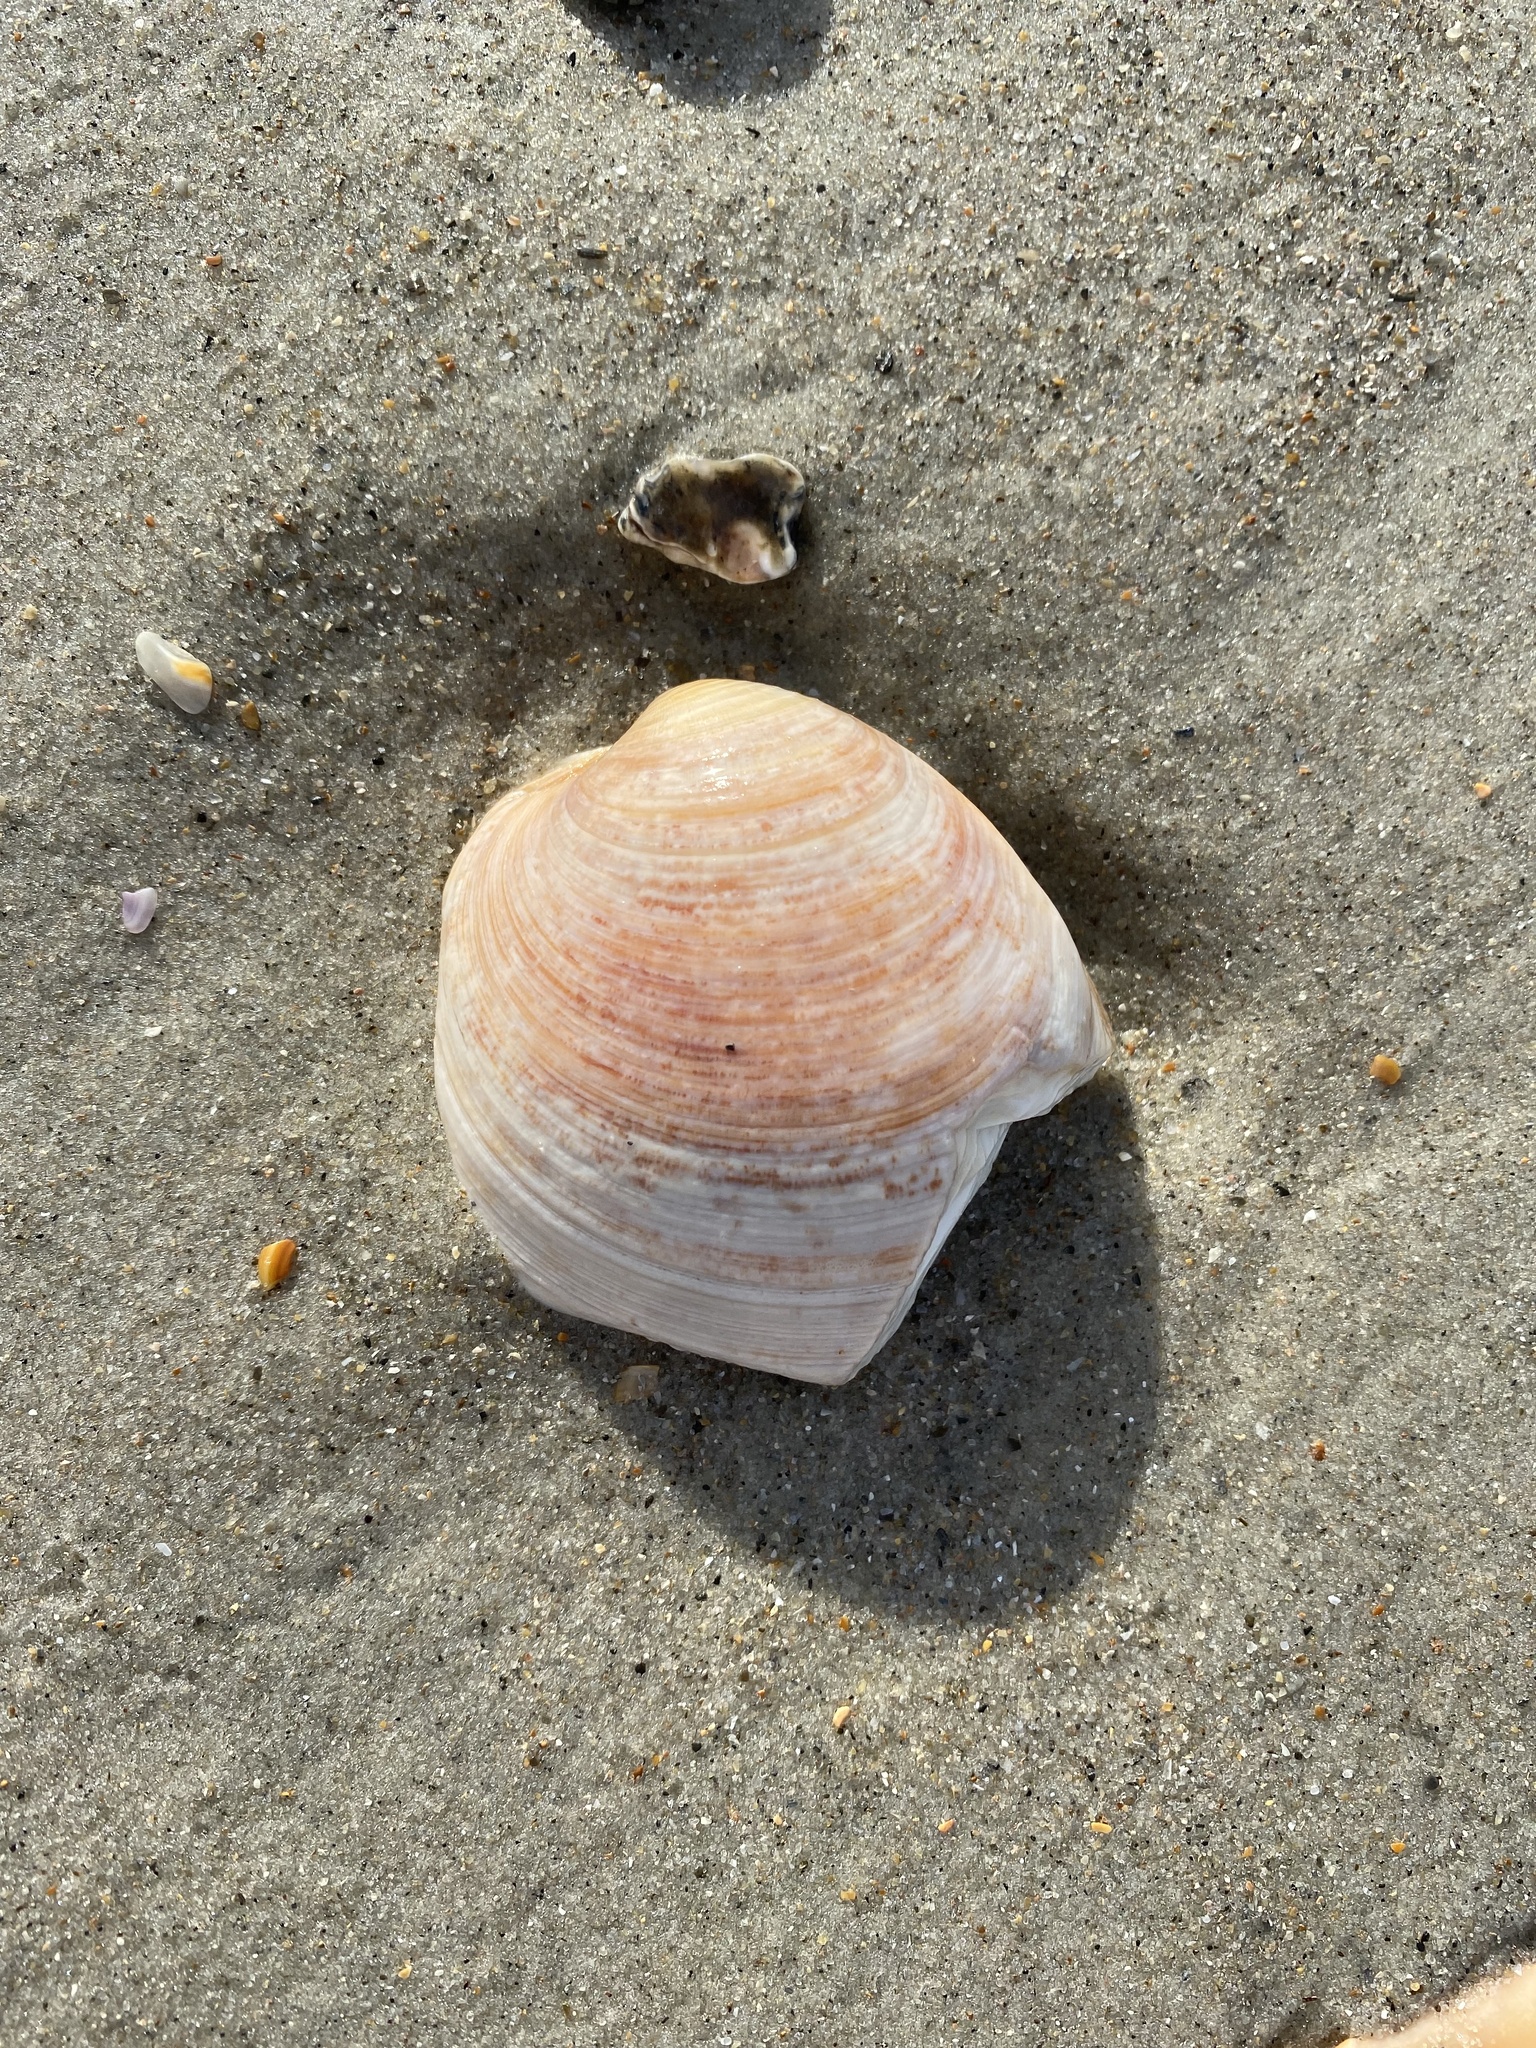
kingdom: Animalia
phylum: Mollusca
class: Bivalvia
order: Venerida
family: Veneridae
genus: Mercenaria
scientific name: Mercenaria mercenaria
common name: American hard-shelled clam
